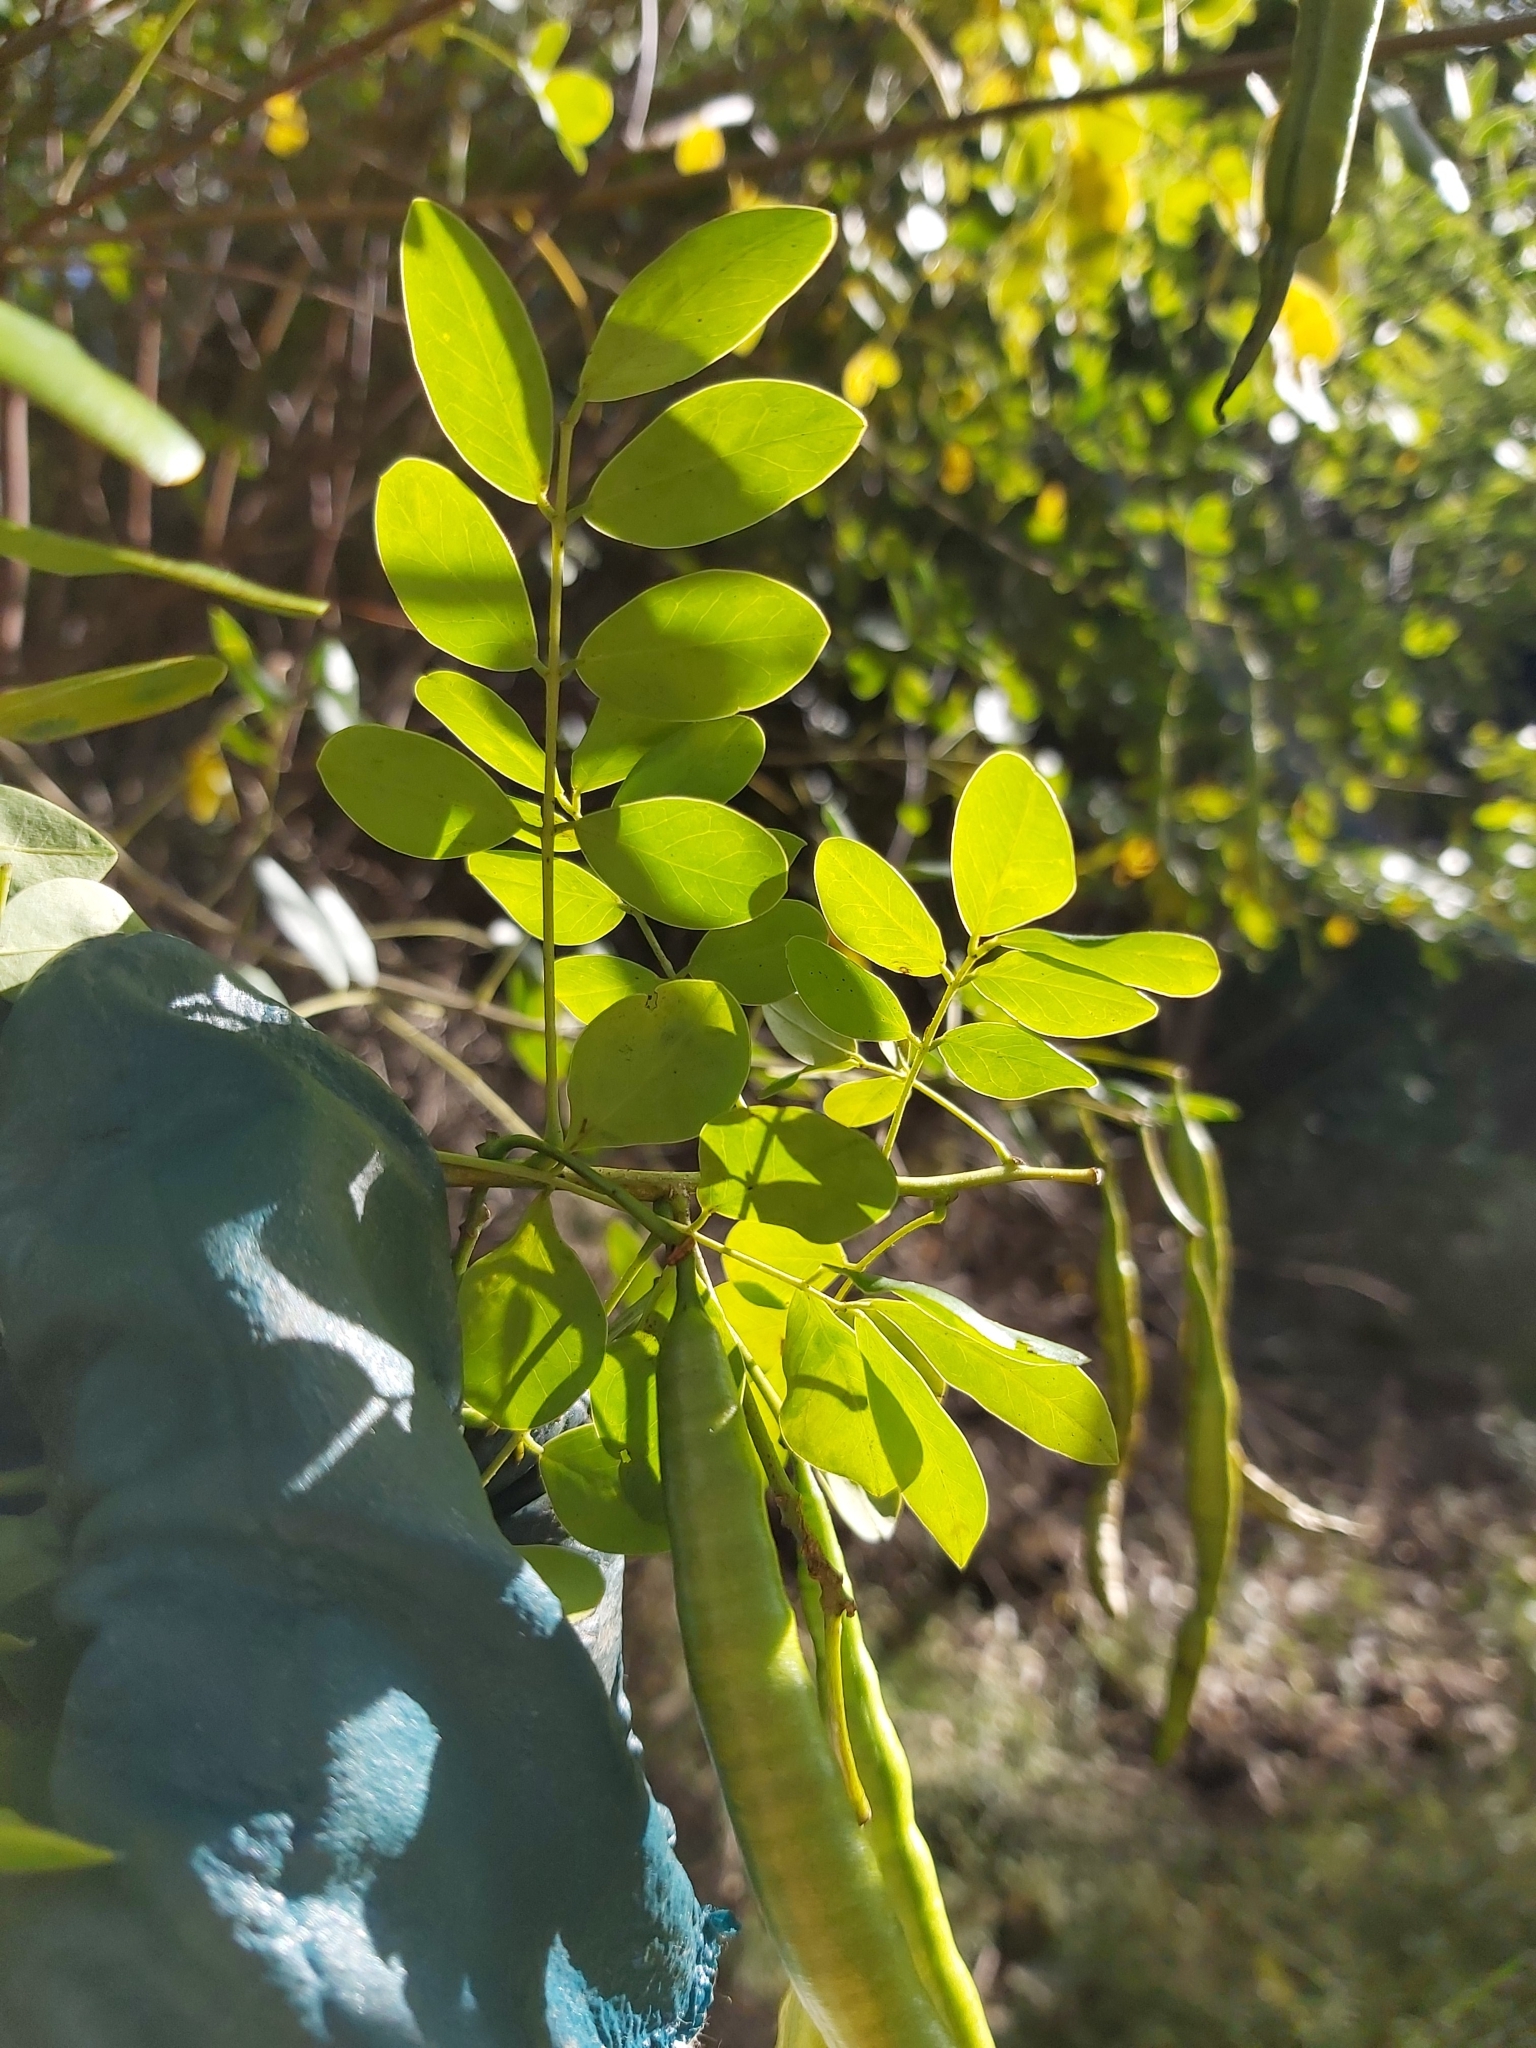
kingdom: Plantae
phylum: Tracheophyta
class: Magnoliopsida
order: Fabales
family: Fabaceae
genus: Senna
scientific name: Senna pendula
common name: Easter cassia
